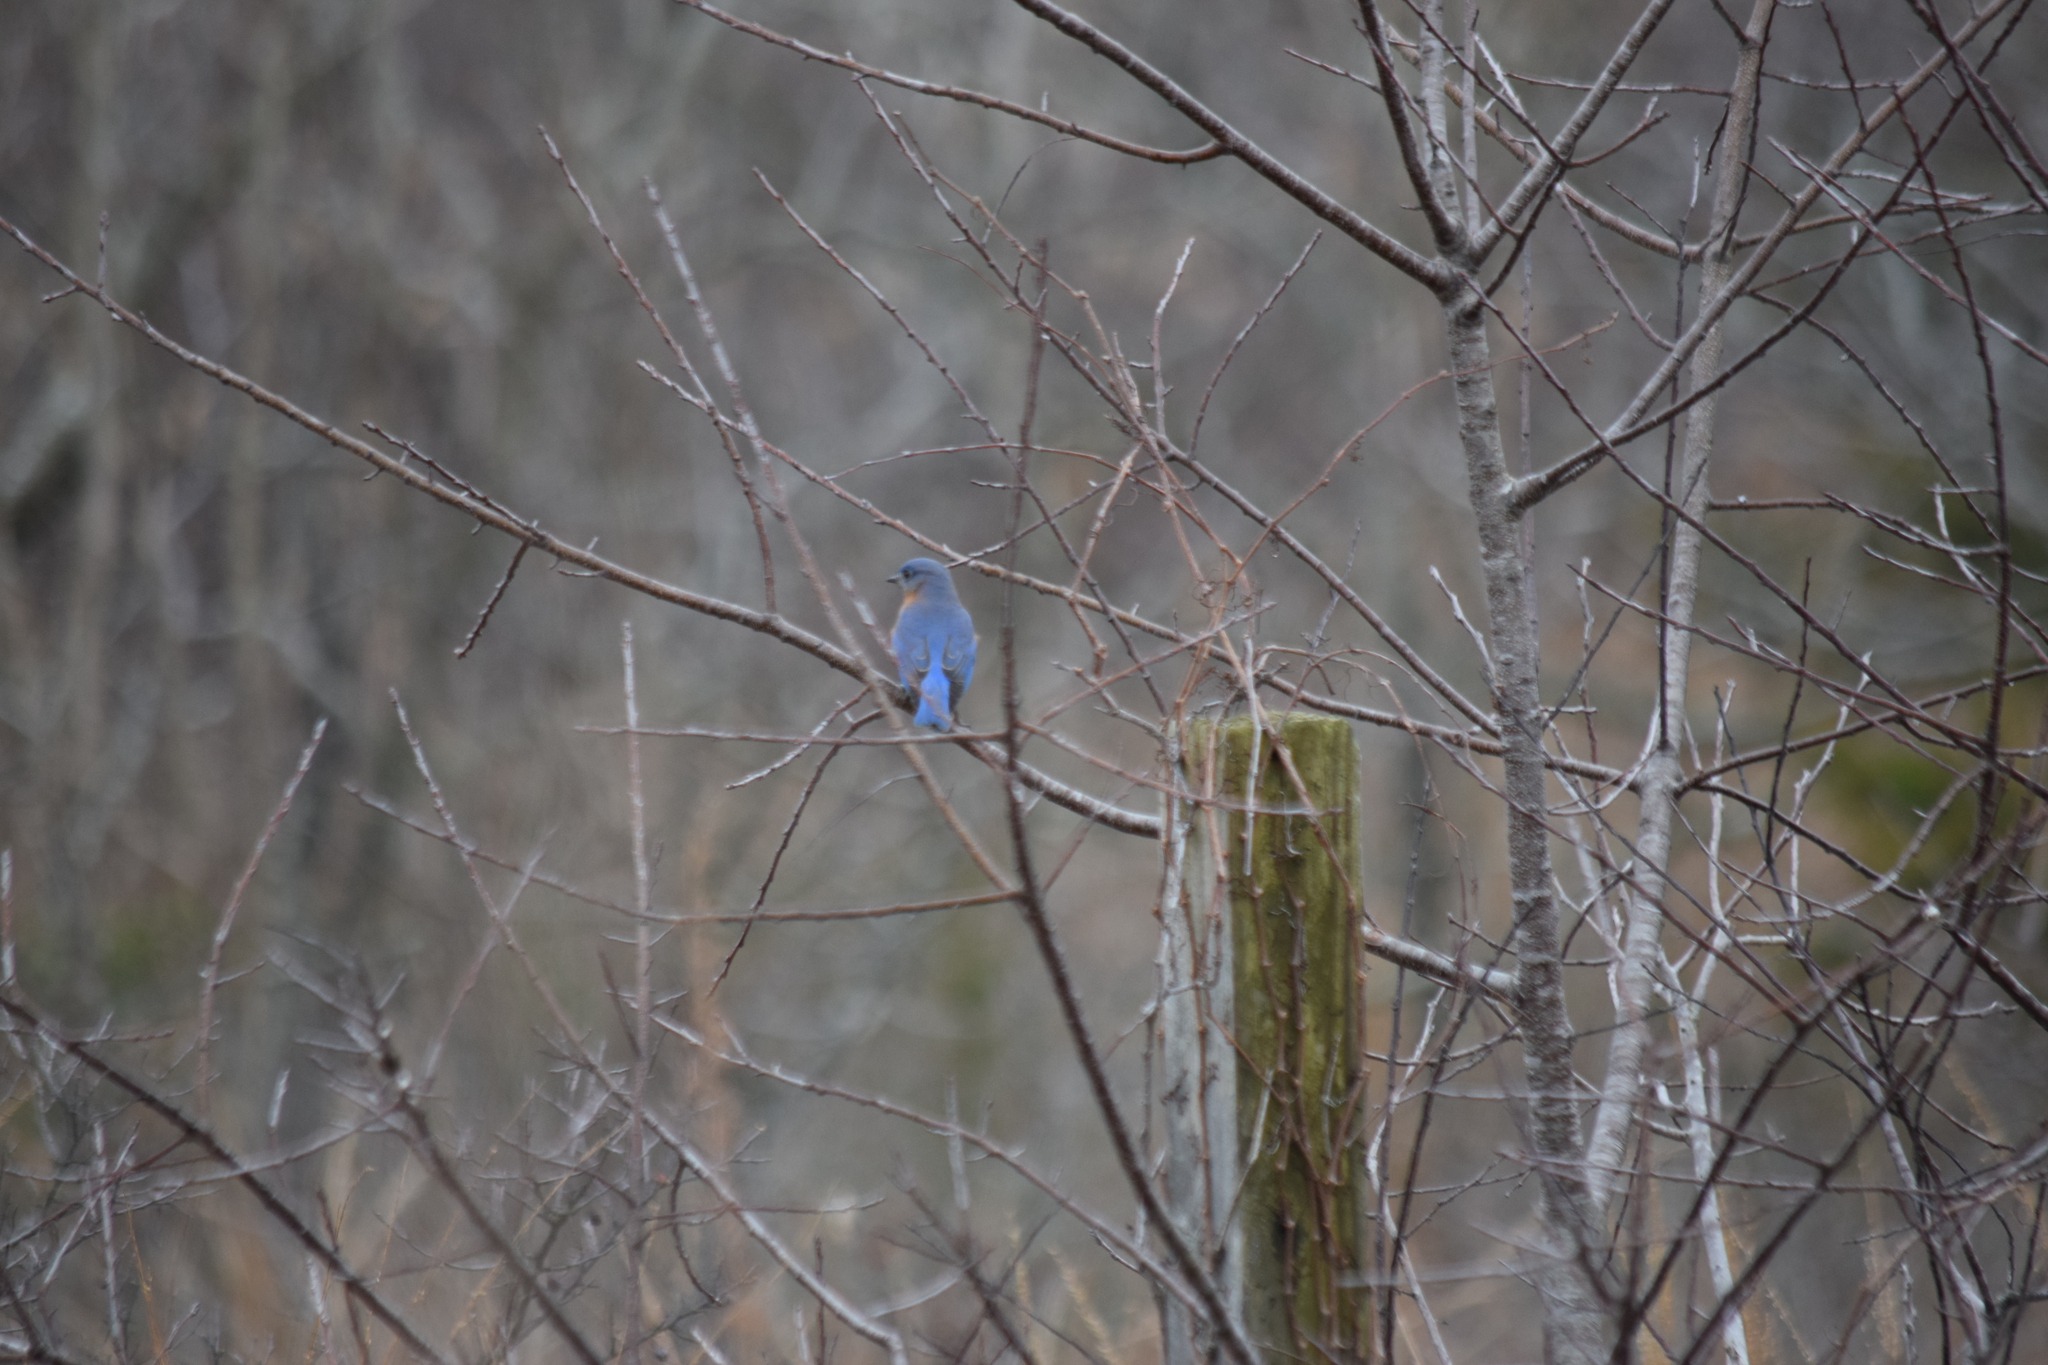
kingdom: Animalia
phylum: Chordata
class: Aves
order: Passeriformes
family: Turdidae
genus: Sialia
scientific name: Sialia sialis
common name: Eastern bluebird
